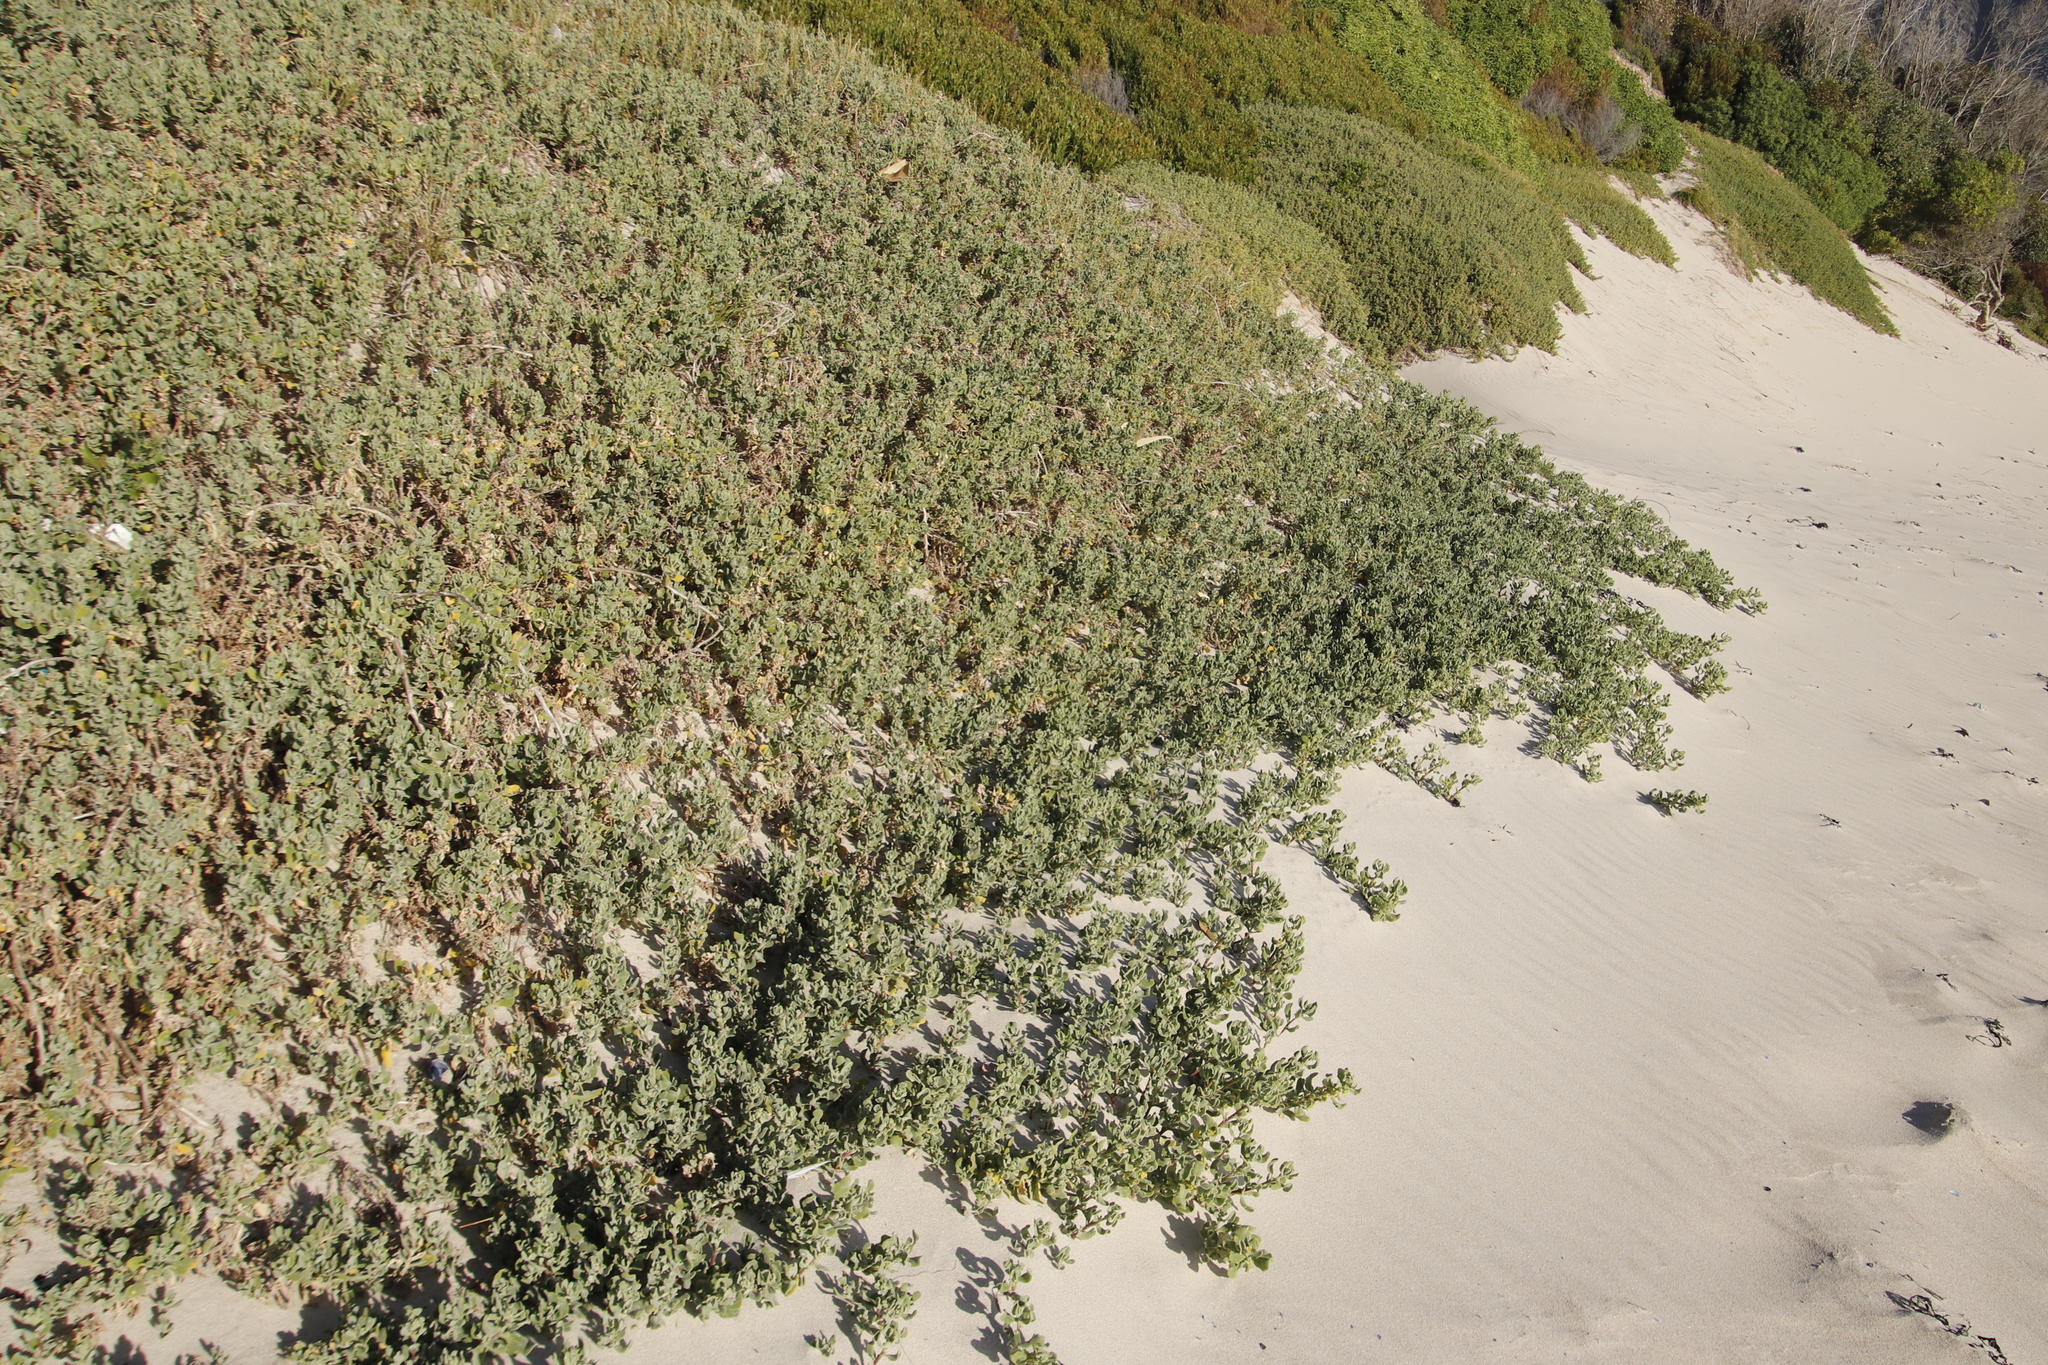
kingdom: Plantae
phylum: Tracheophyta
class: Magnoliopsida
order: Caryophyllales
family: Aizoaceae
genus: Tetragonia
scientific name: Tetragonia fruticosa
